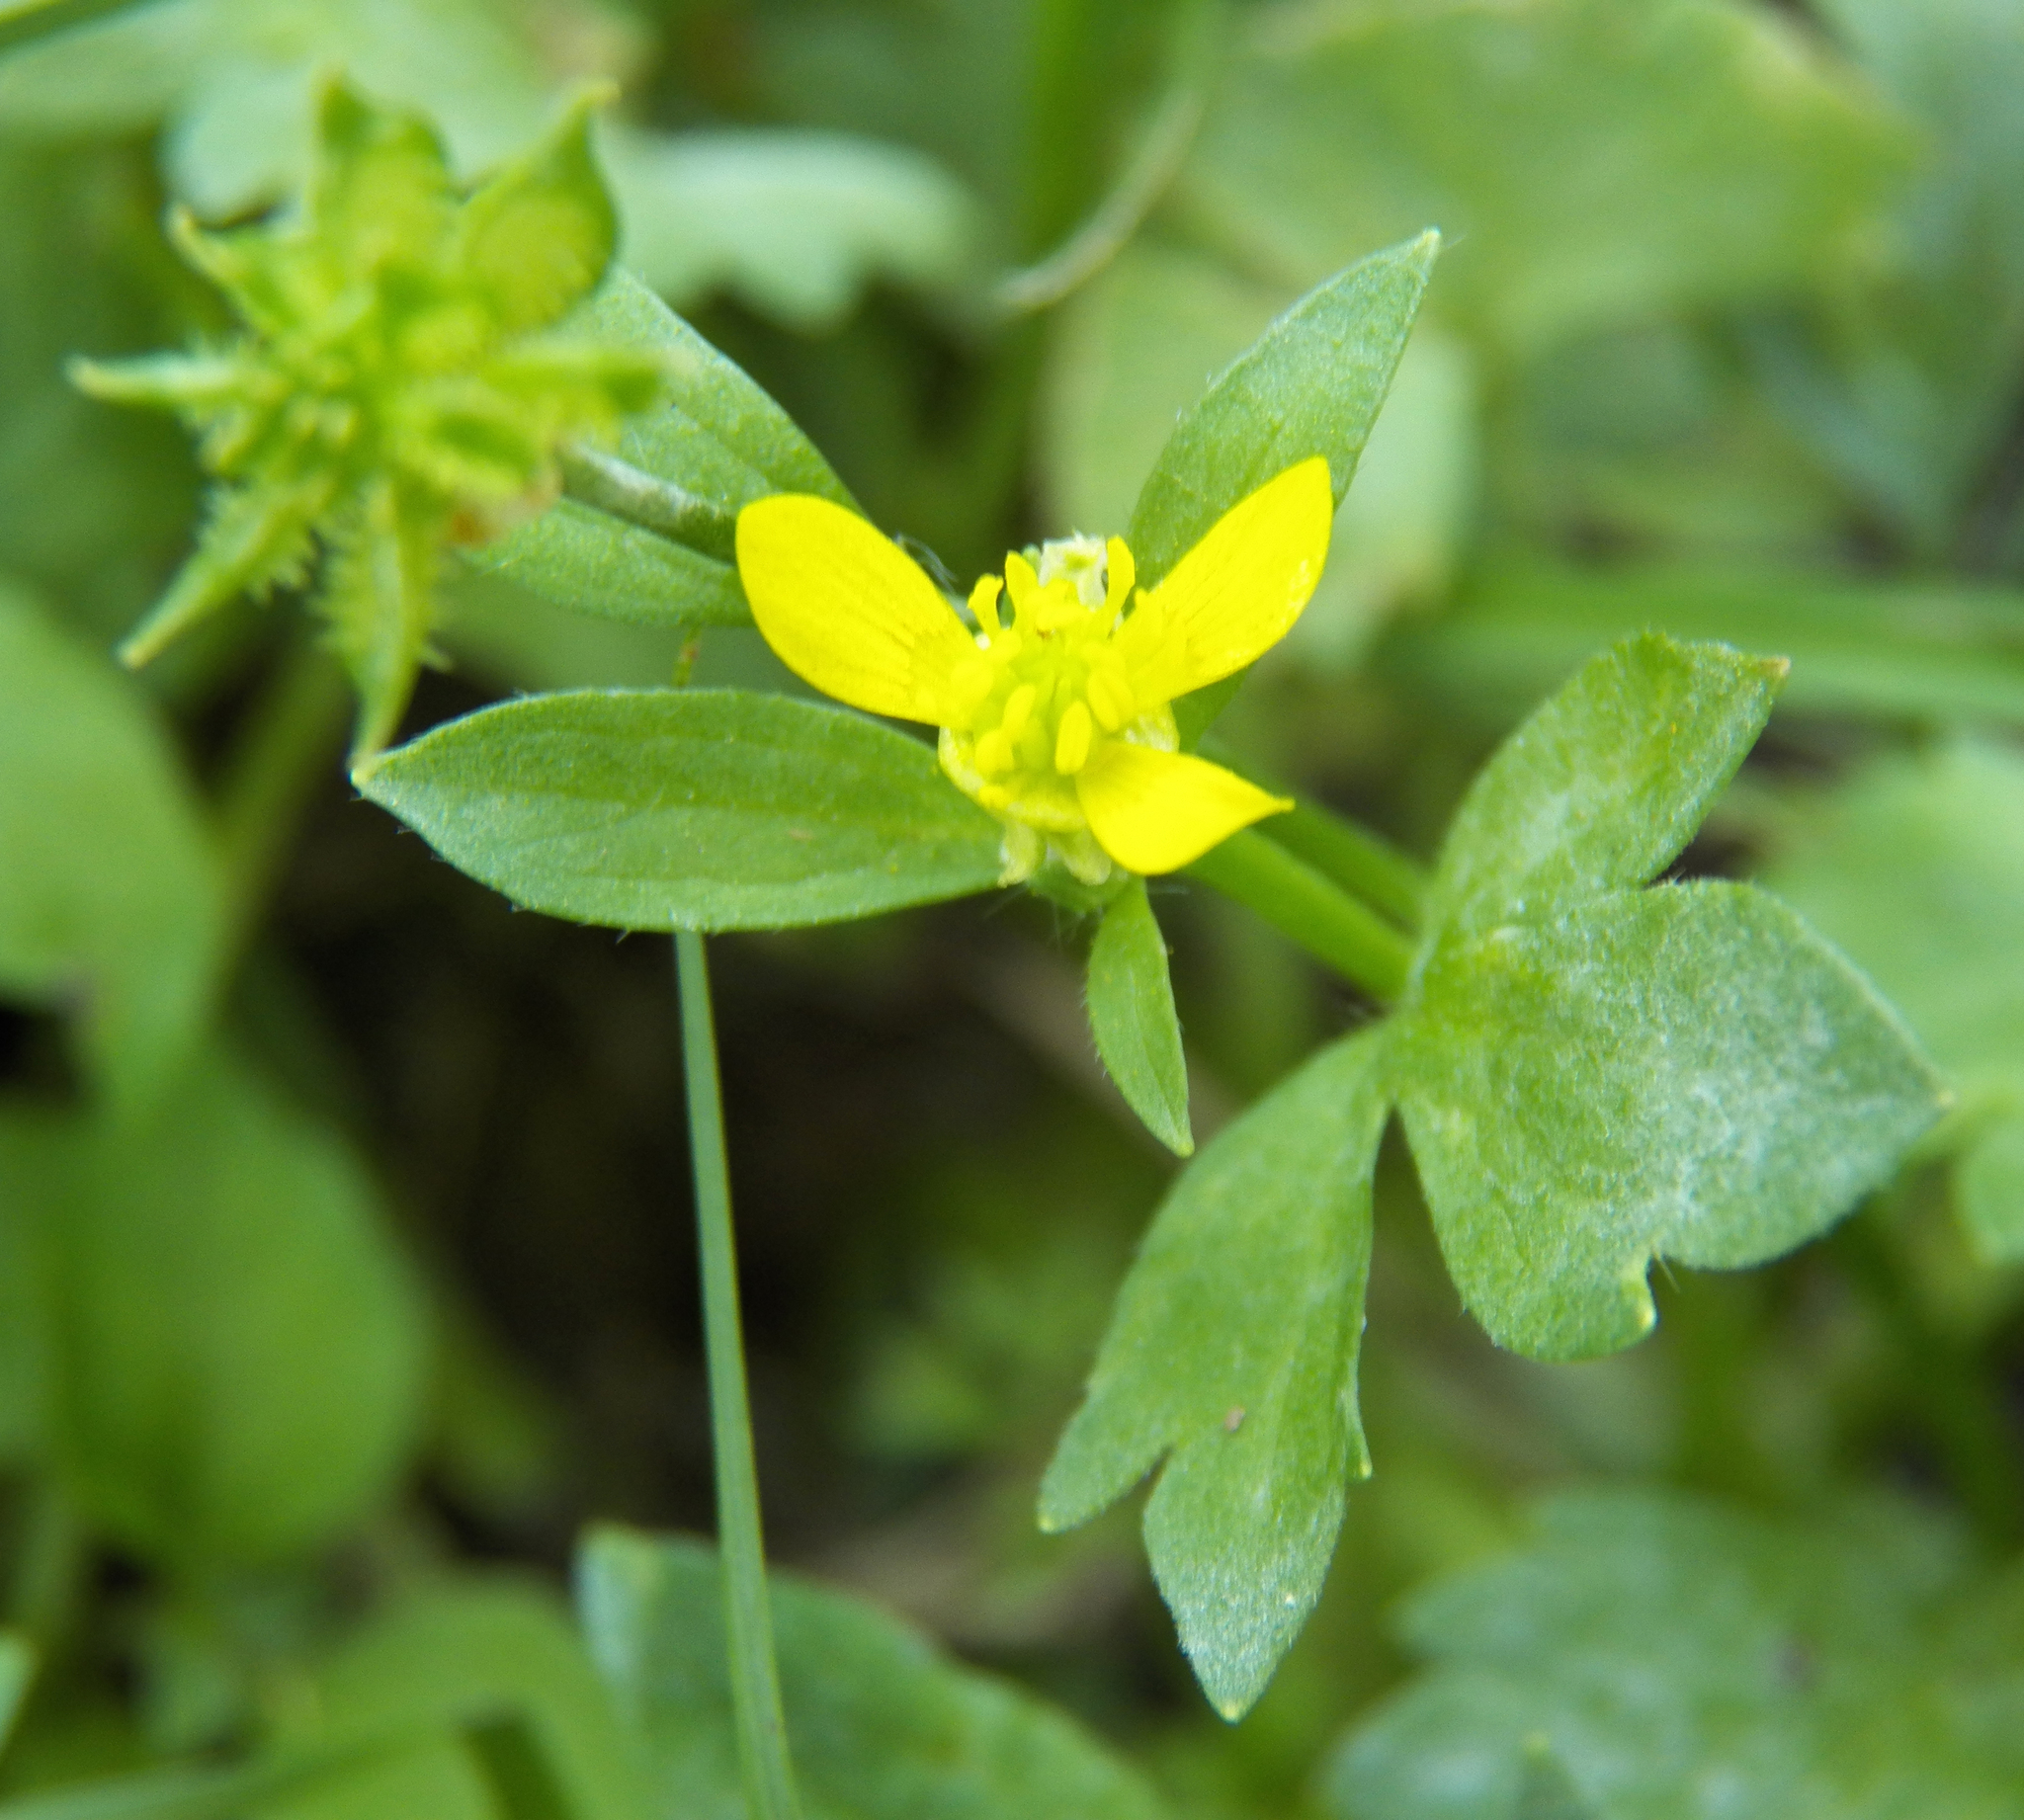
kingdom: Plantae
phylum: Tracheophyta
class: Magnoliopsida
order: Ranunculales
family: Ranunculaceae
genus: Ranunculus
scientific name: Ranunculus muricatus
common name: Rough-fruited buttercup
